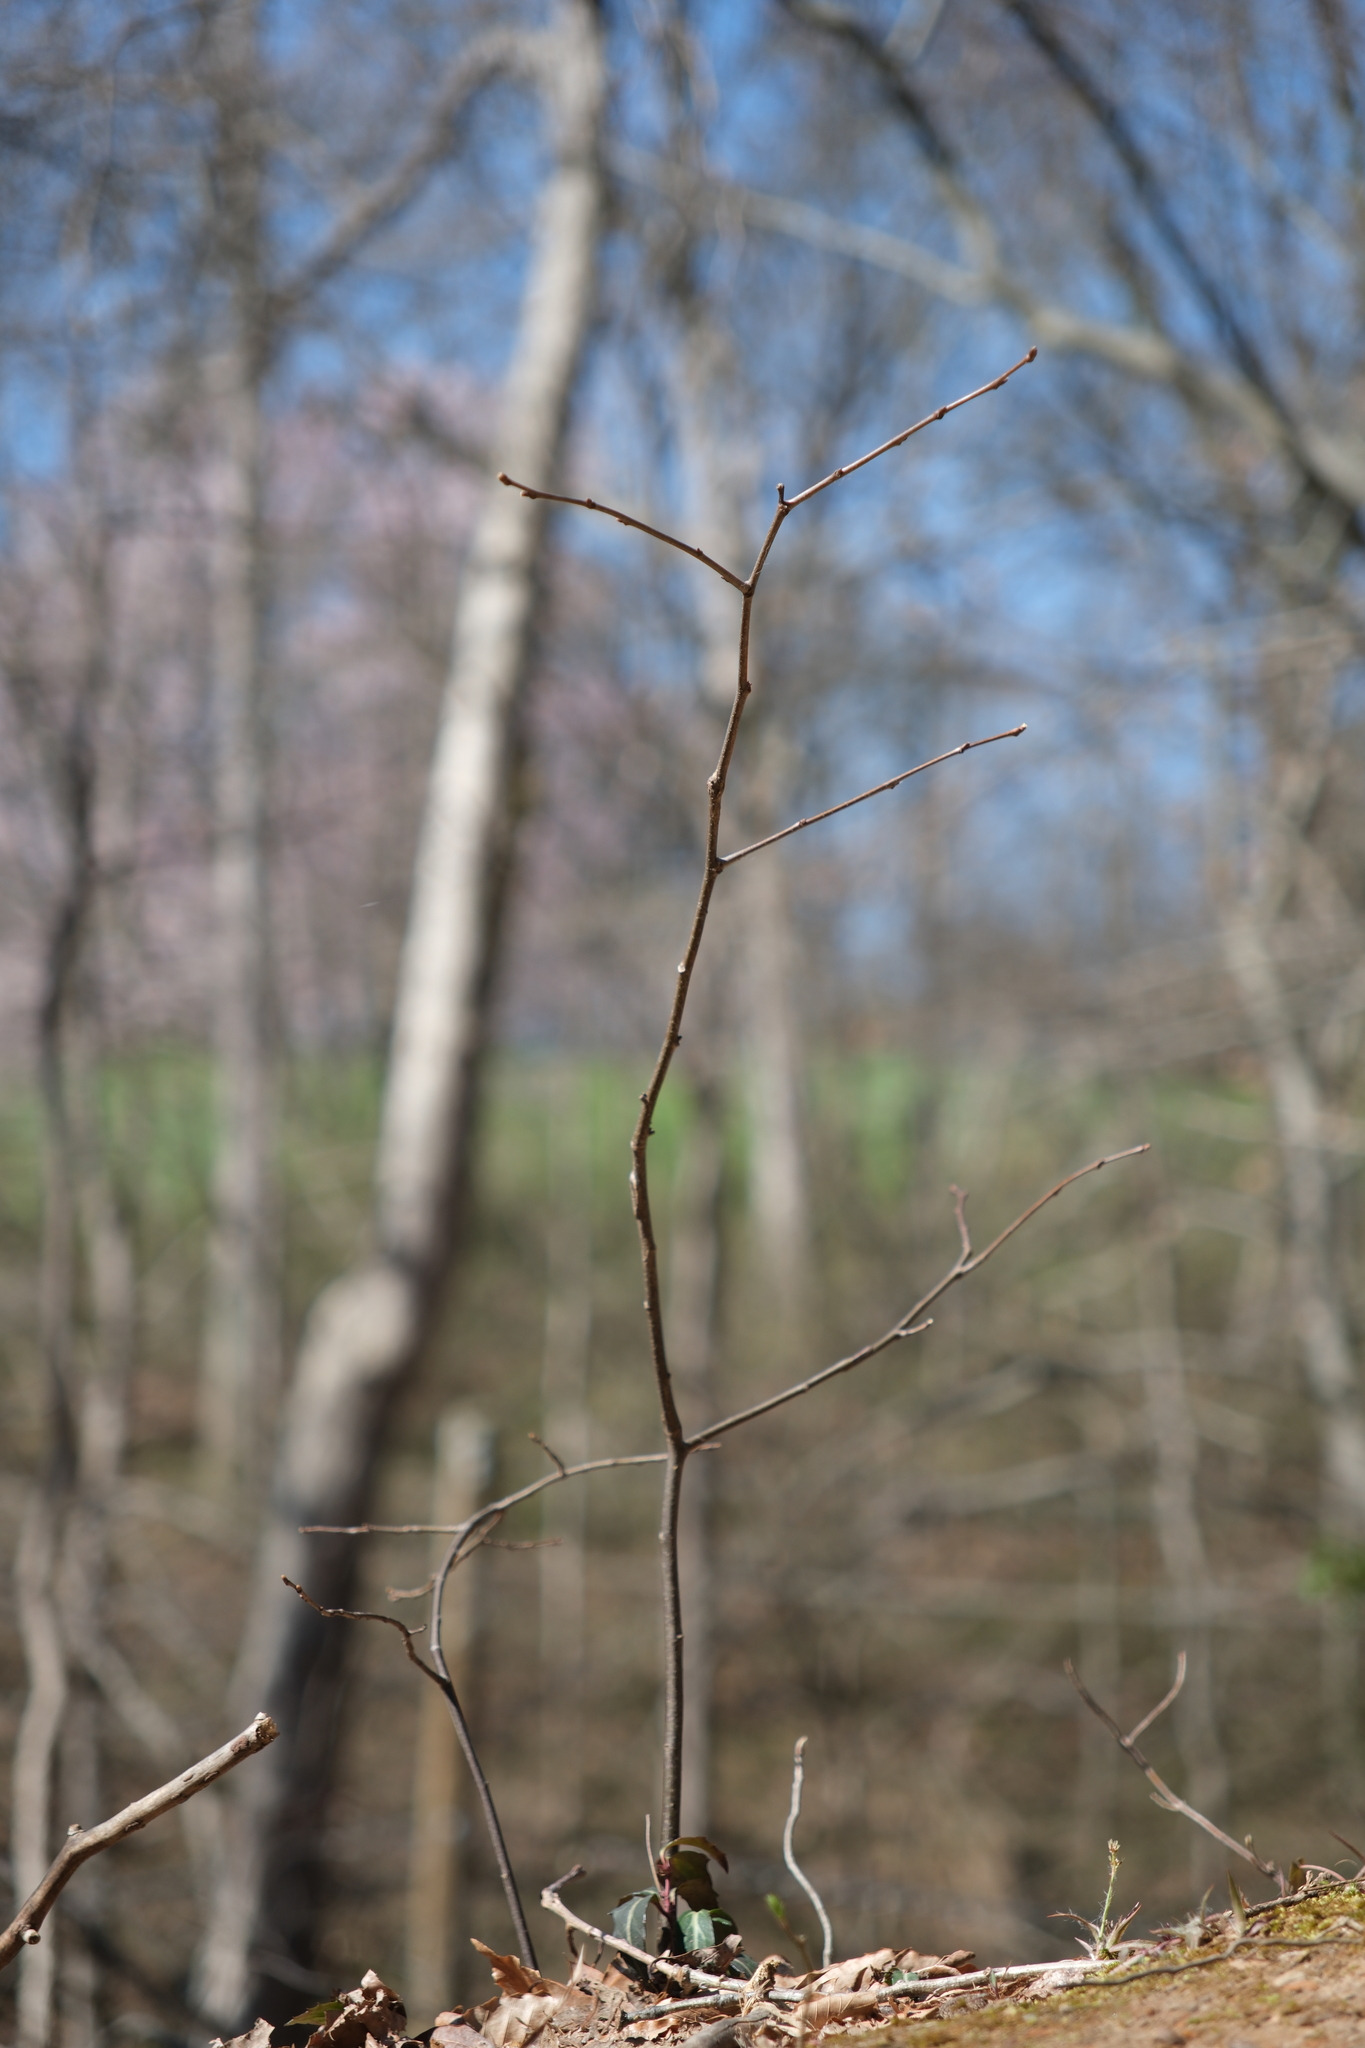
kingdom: Plantae
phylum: Tracheophyta
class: Magnoliopsida
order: Fagales
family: Fagaceae
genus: Castanea
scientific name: Castanea dentata
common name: American chestnut
